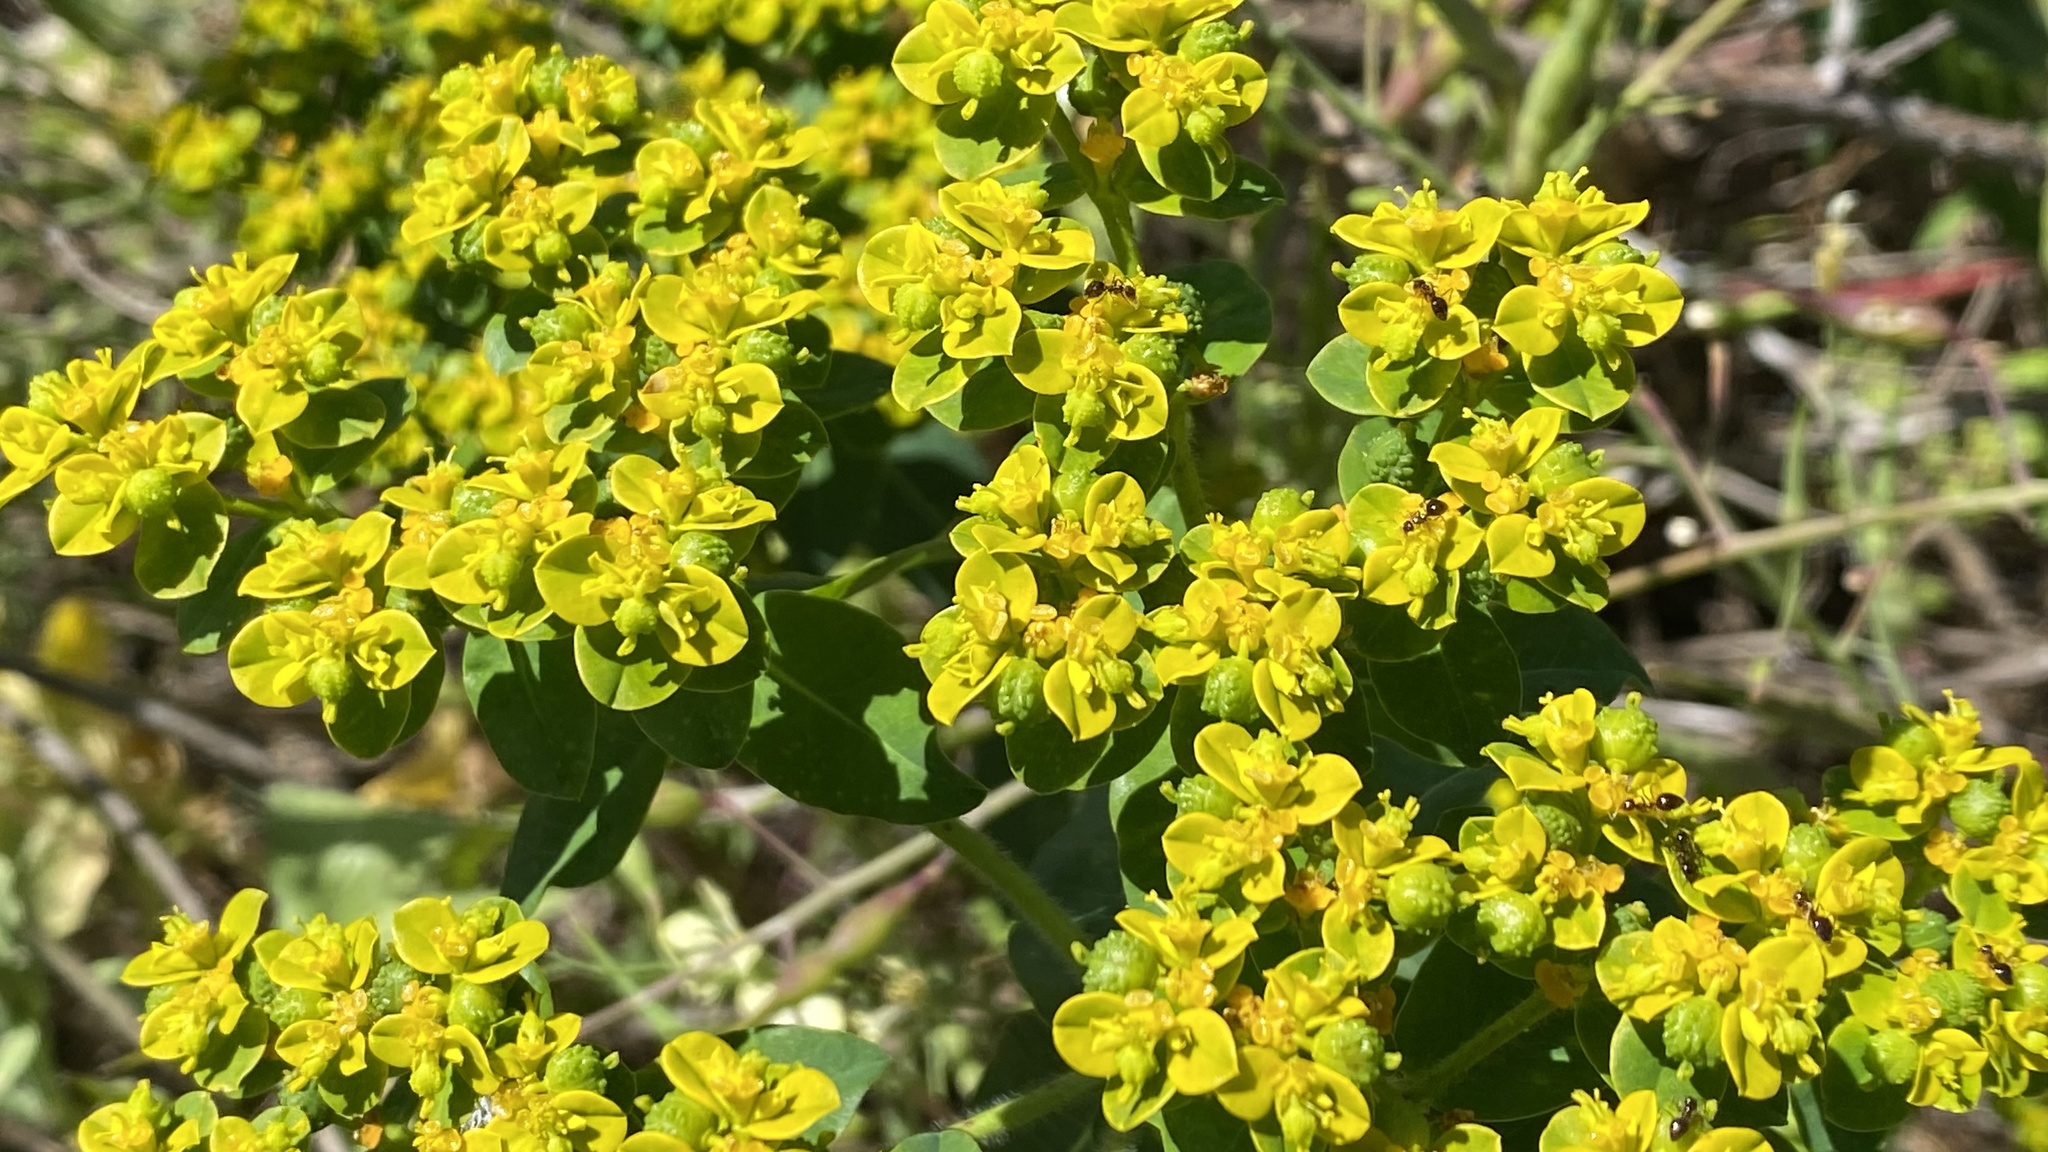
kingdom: Plantae
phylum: Tracheophyta
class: Magnoliopsida
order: Malpighiales
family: Euphorbiaceae
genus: Euphorbia
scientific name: Euphorbia oblongata
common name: Balkan spurge
